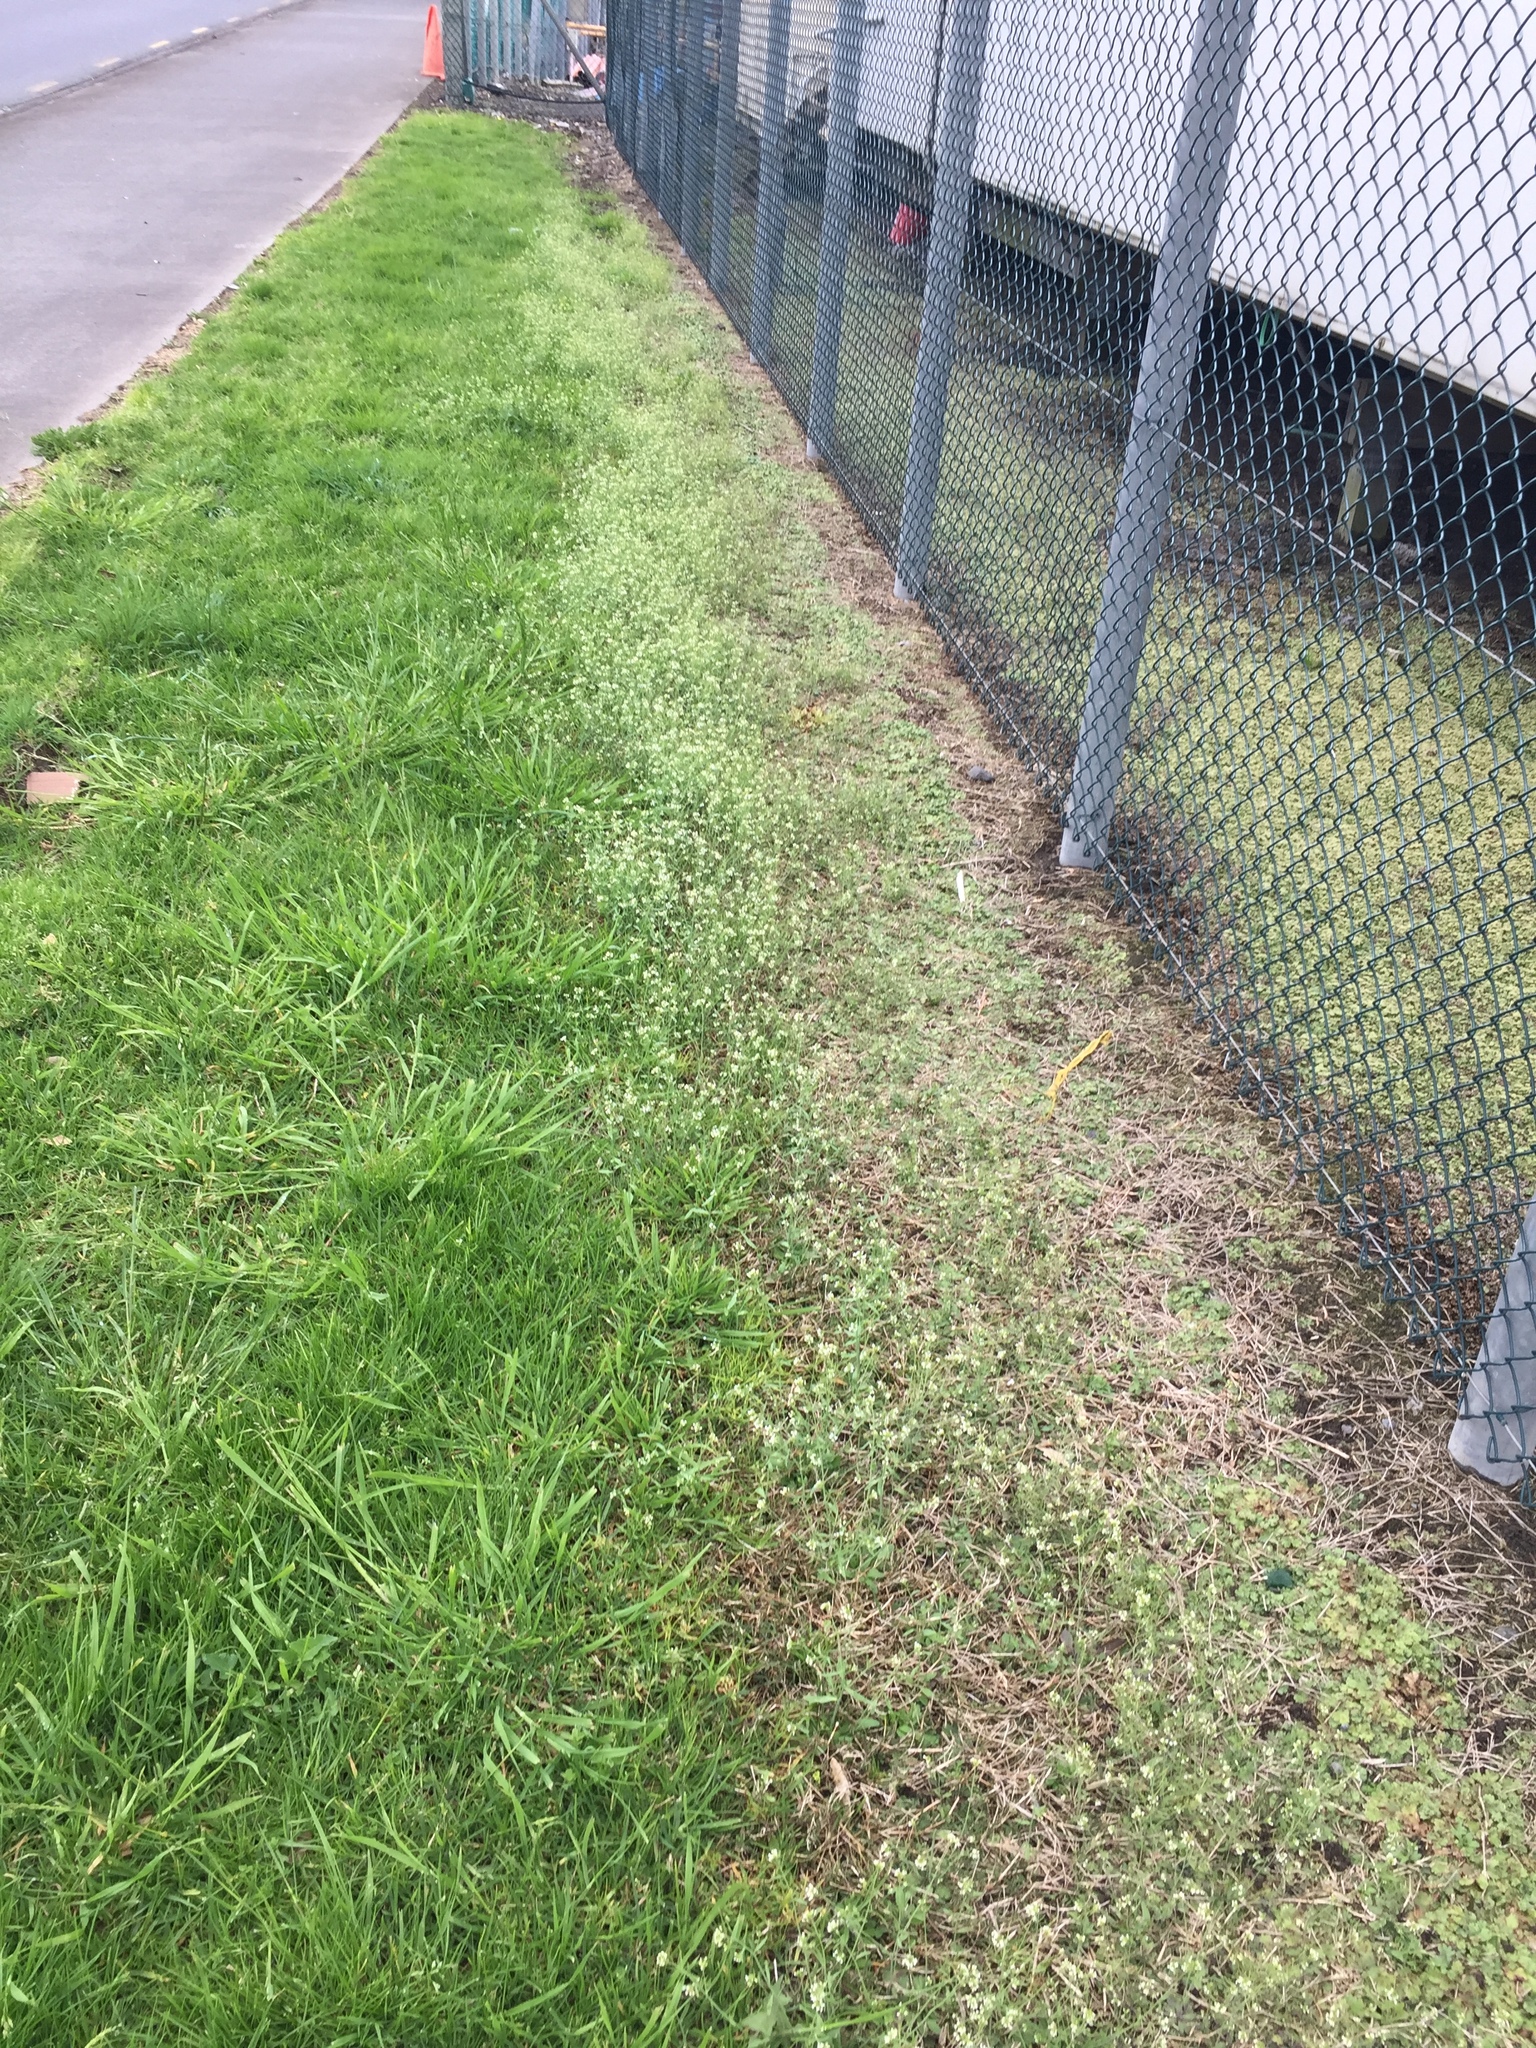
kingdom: Plantae
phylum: Tracheophyta
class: Magnoliopsida
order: Brassicales
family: Brassicaceae
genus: Arabidopsis
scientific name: Arabidopsis thaliana
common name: Thale cress
